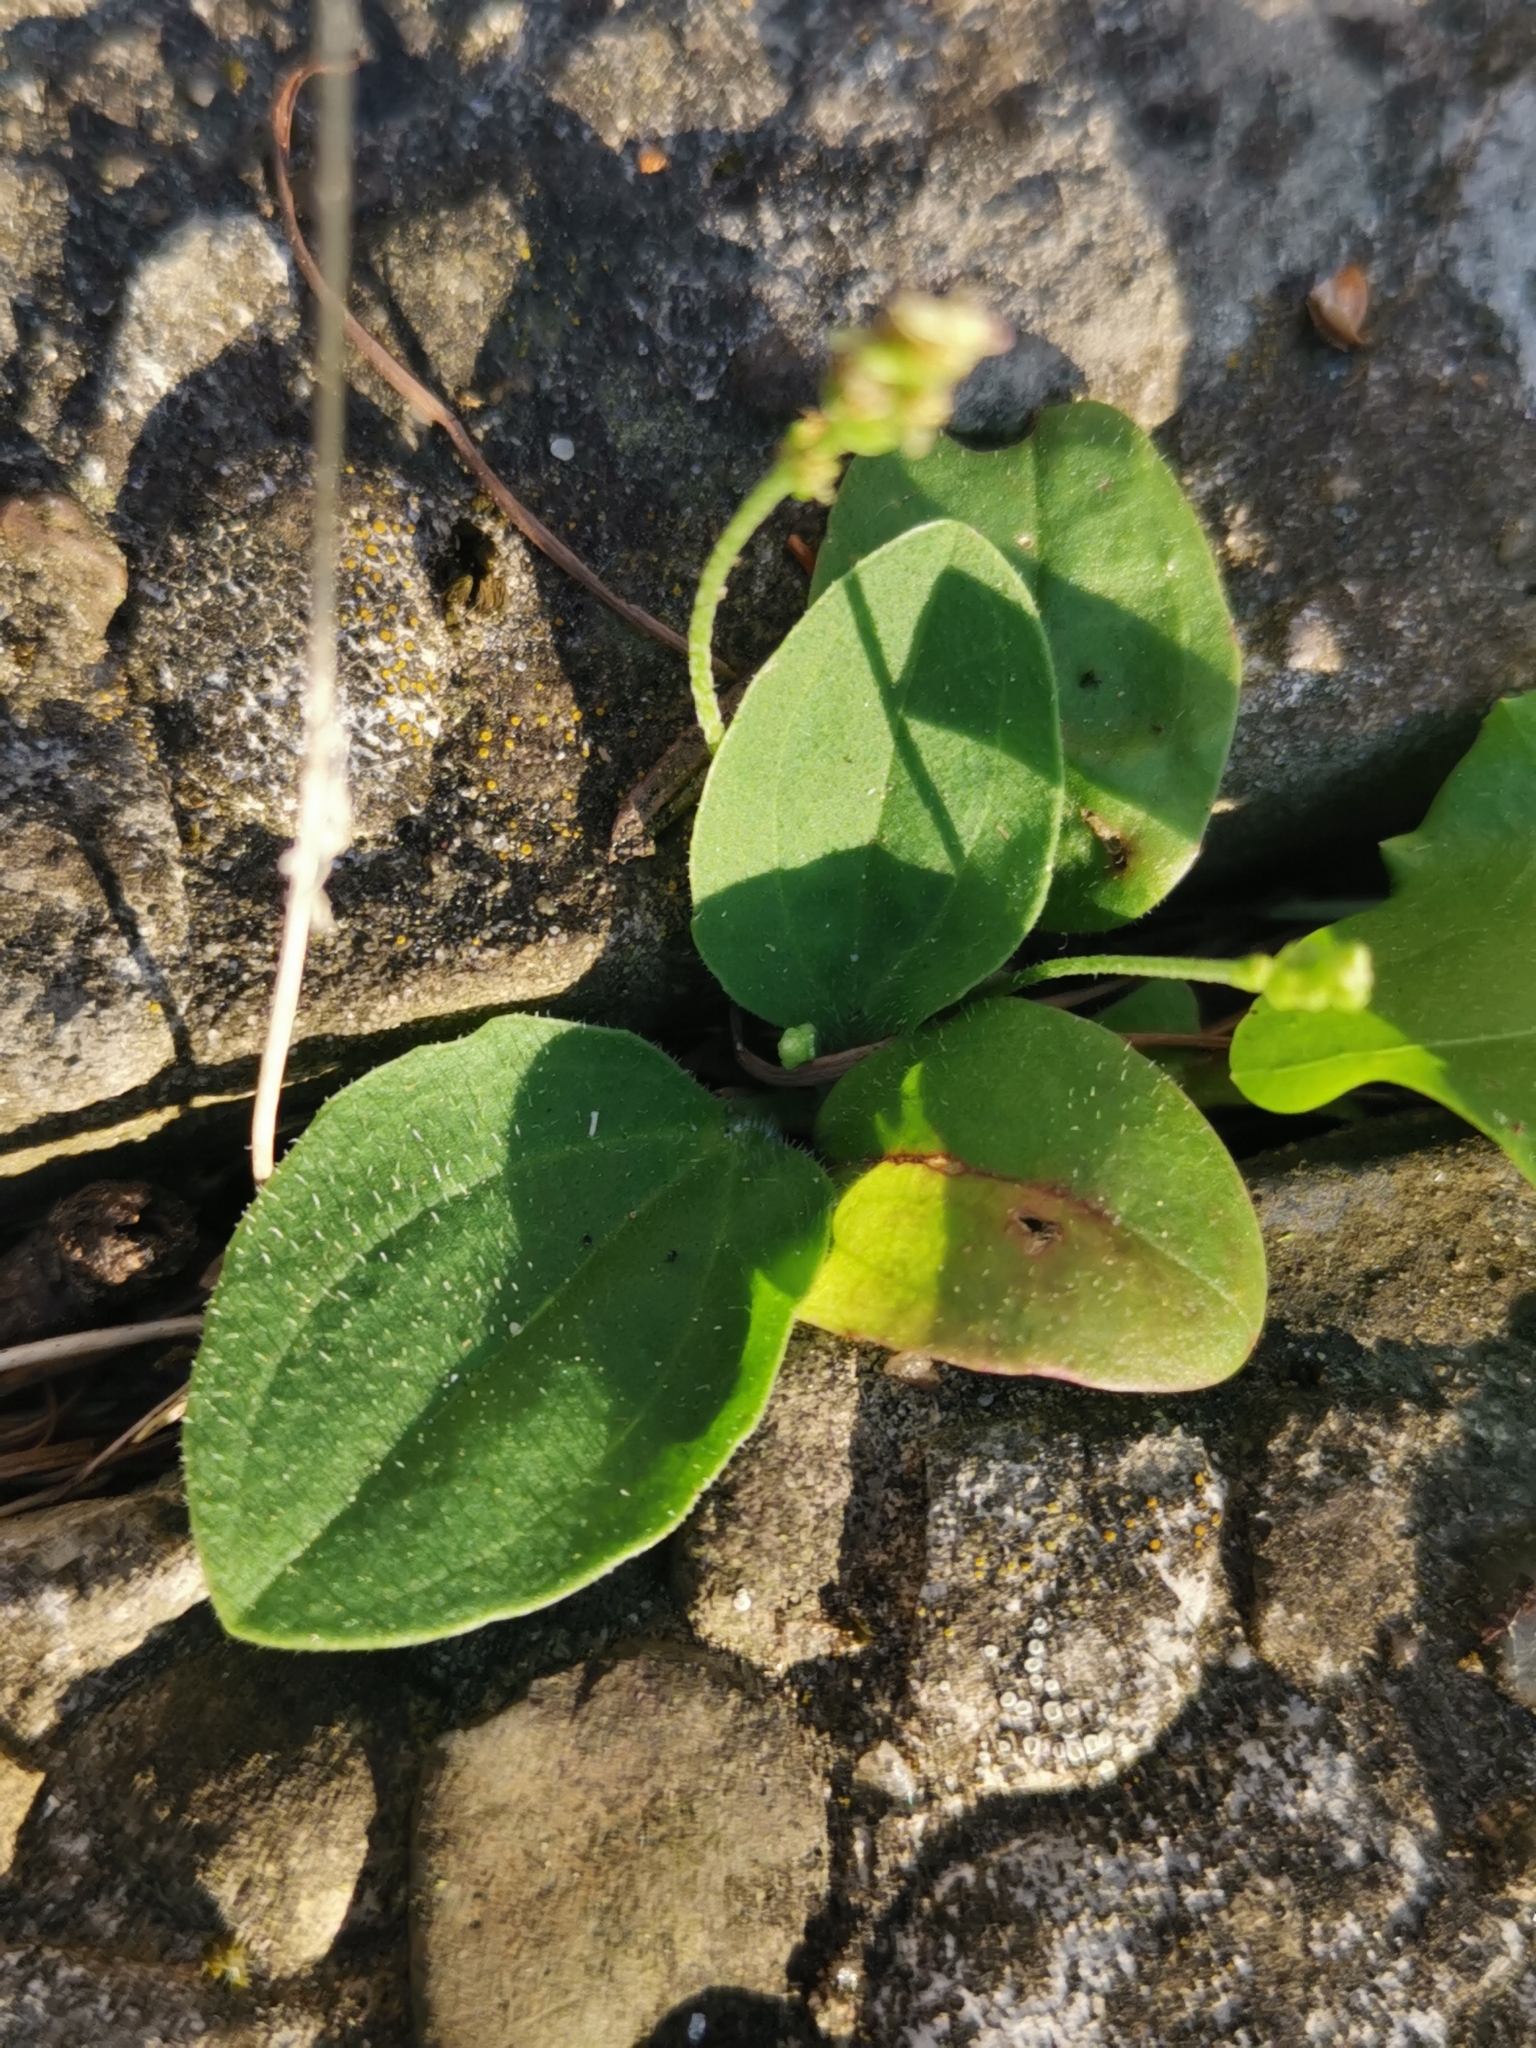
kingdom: Plantae
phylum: Tracheophyta
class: Magnoliopsida
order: Lamiales
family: Plantaginaceae
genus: Plantago
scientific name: Plantago major
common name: Common plantain
